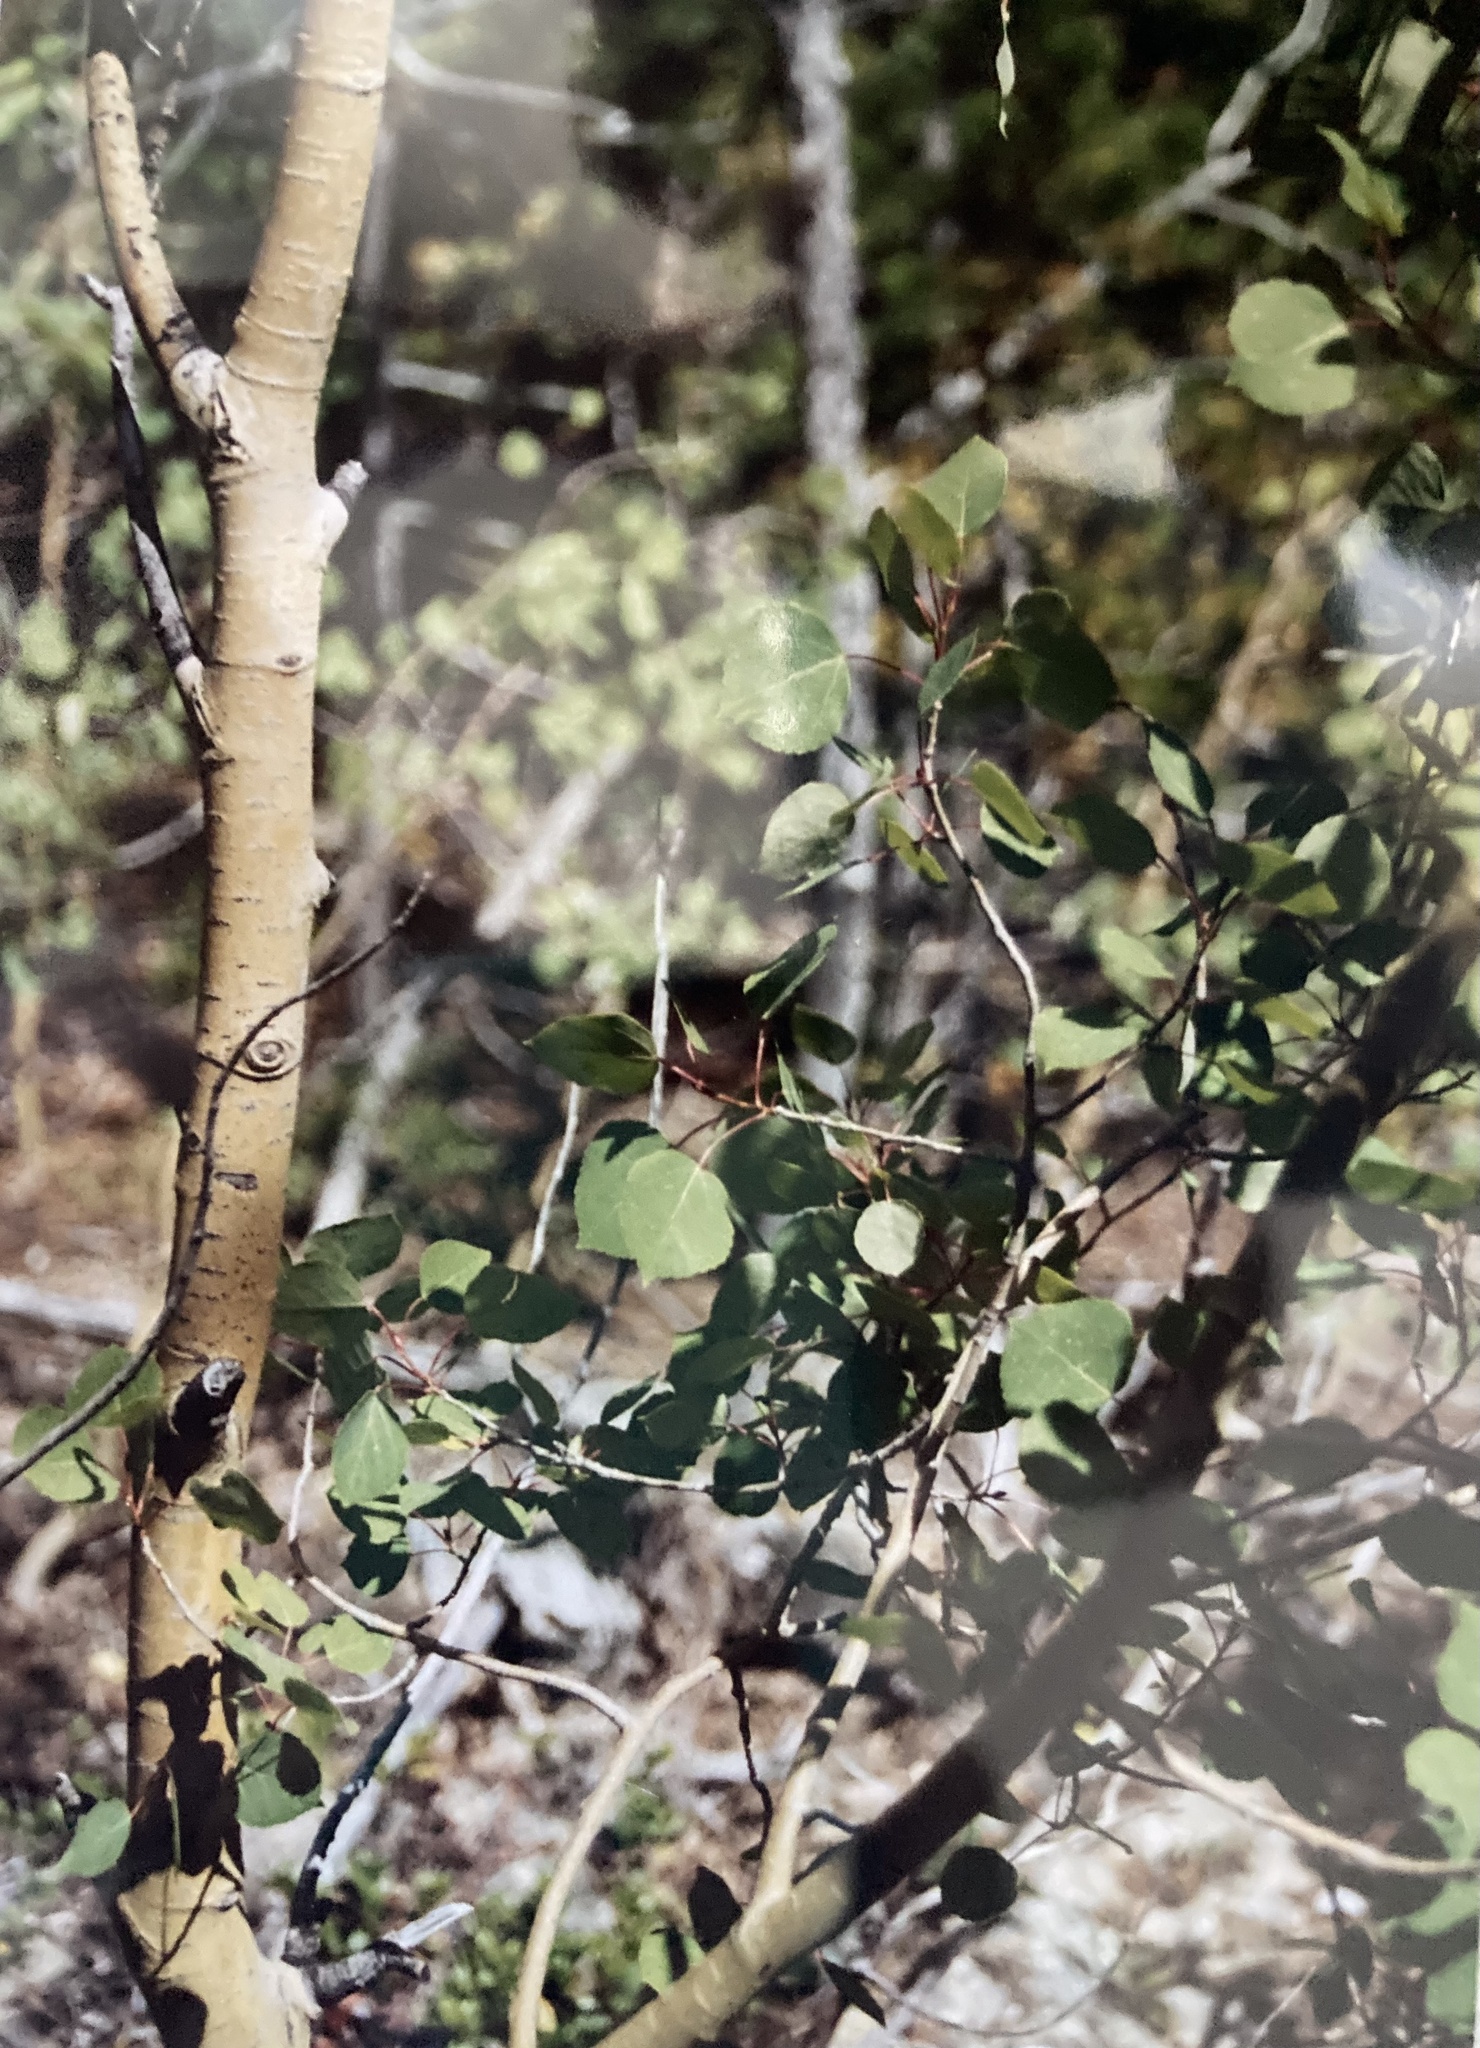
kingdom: Plantae
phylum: Tracheophyta
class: Magnoliopsida
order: Malpighiales
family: Salicaceae
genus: Populus
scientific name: Populus tremuloides
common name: Quaking aspen
